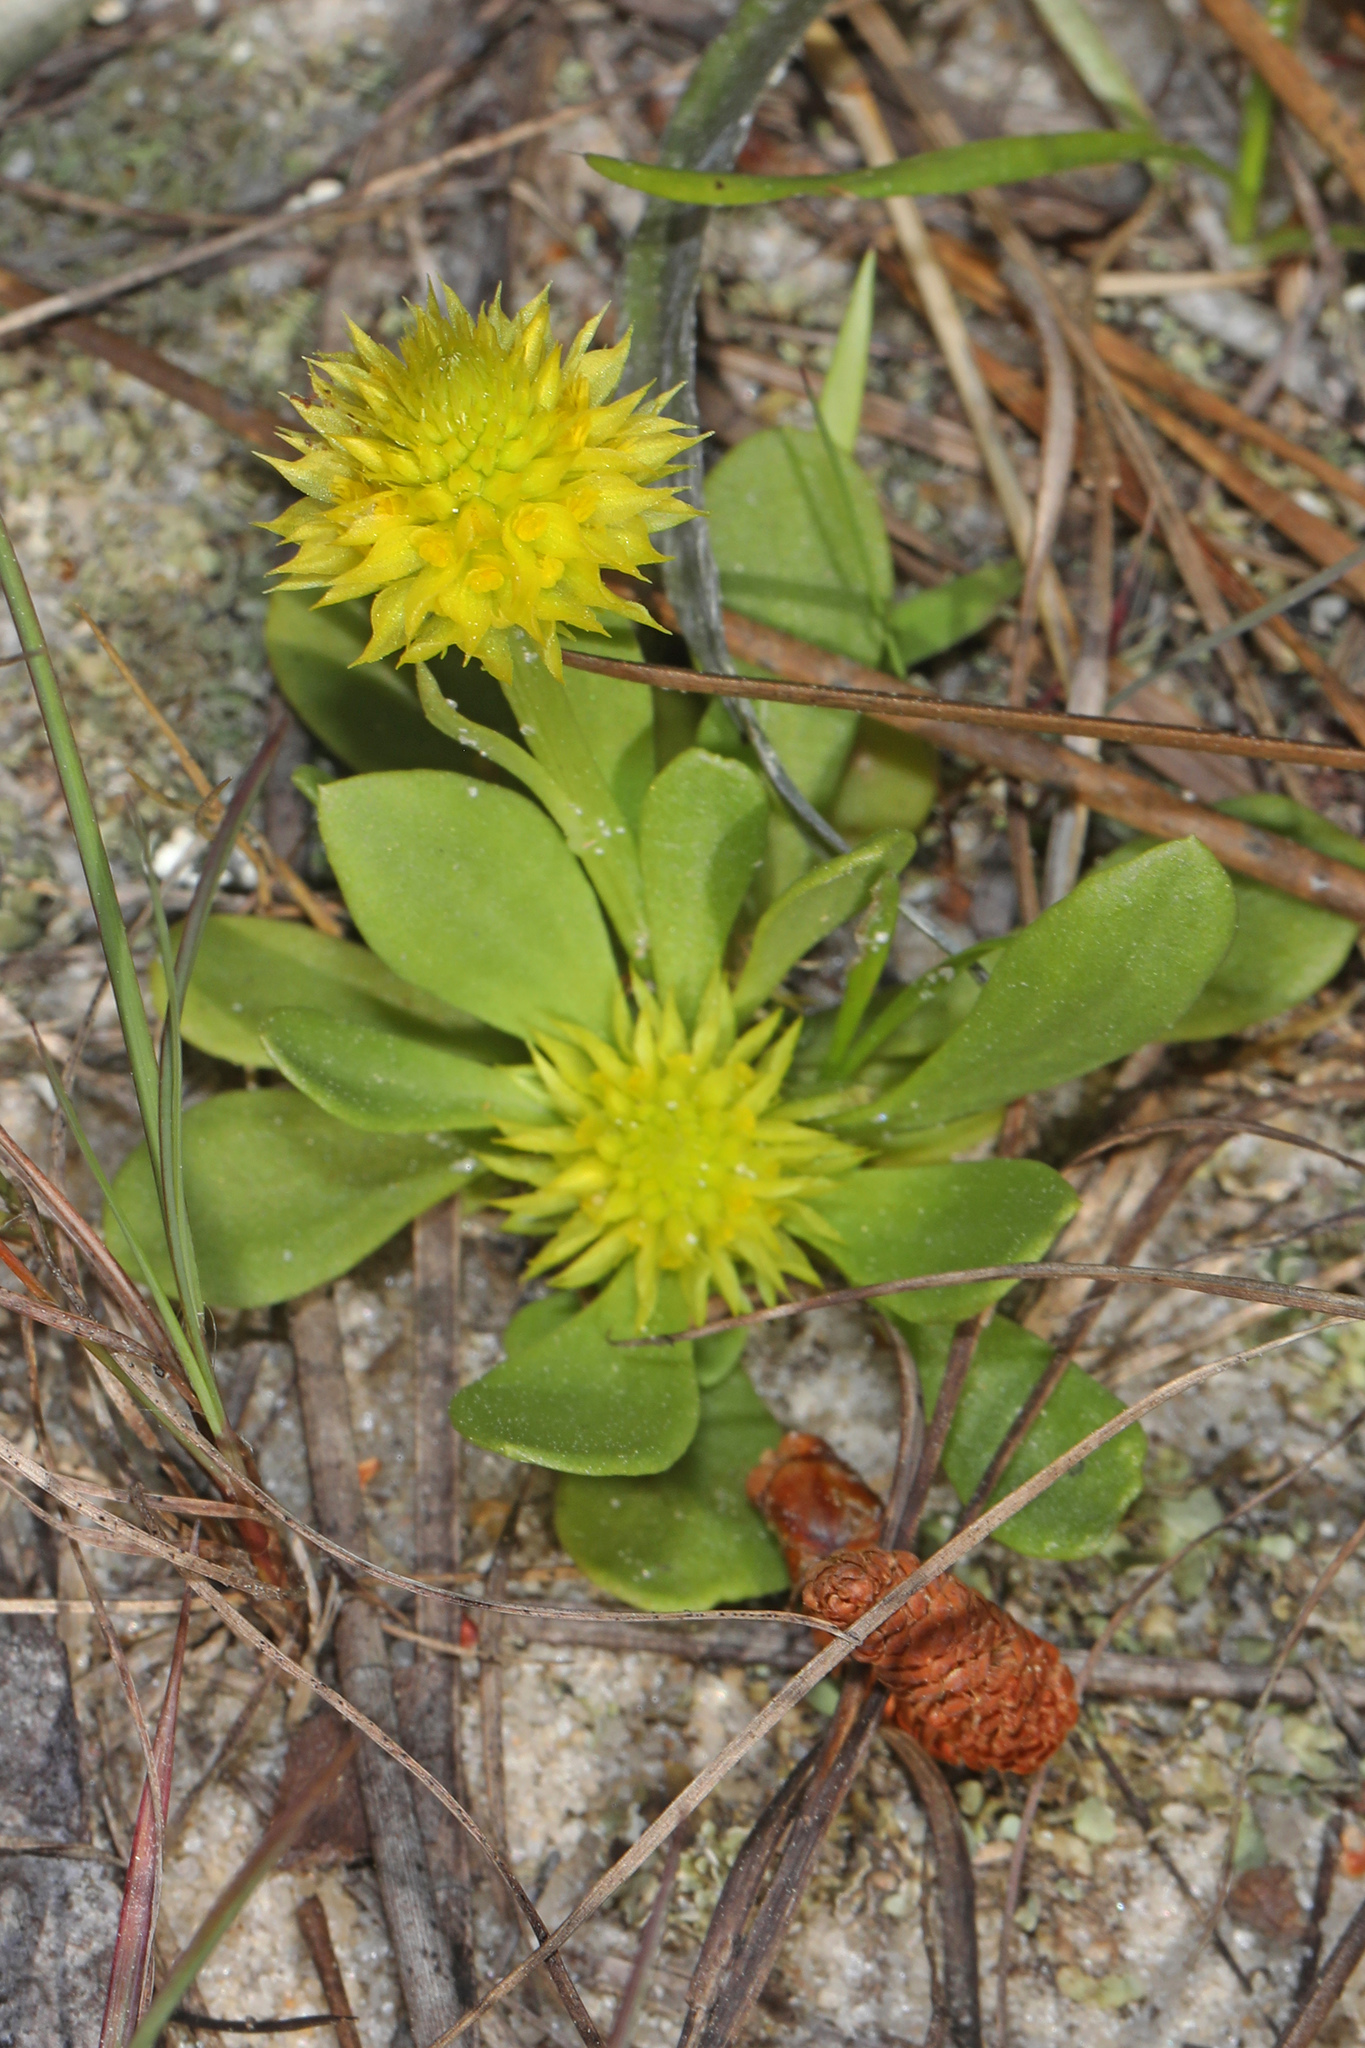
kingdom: Plantae
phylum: Tracheophyta
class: Magnoliopsida
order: Fabales
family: Polygalaceae
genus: Polygala
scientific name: Polygala nana
